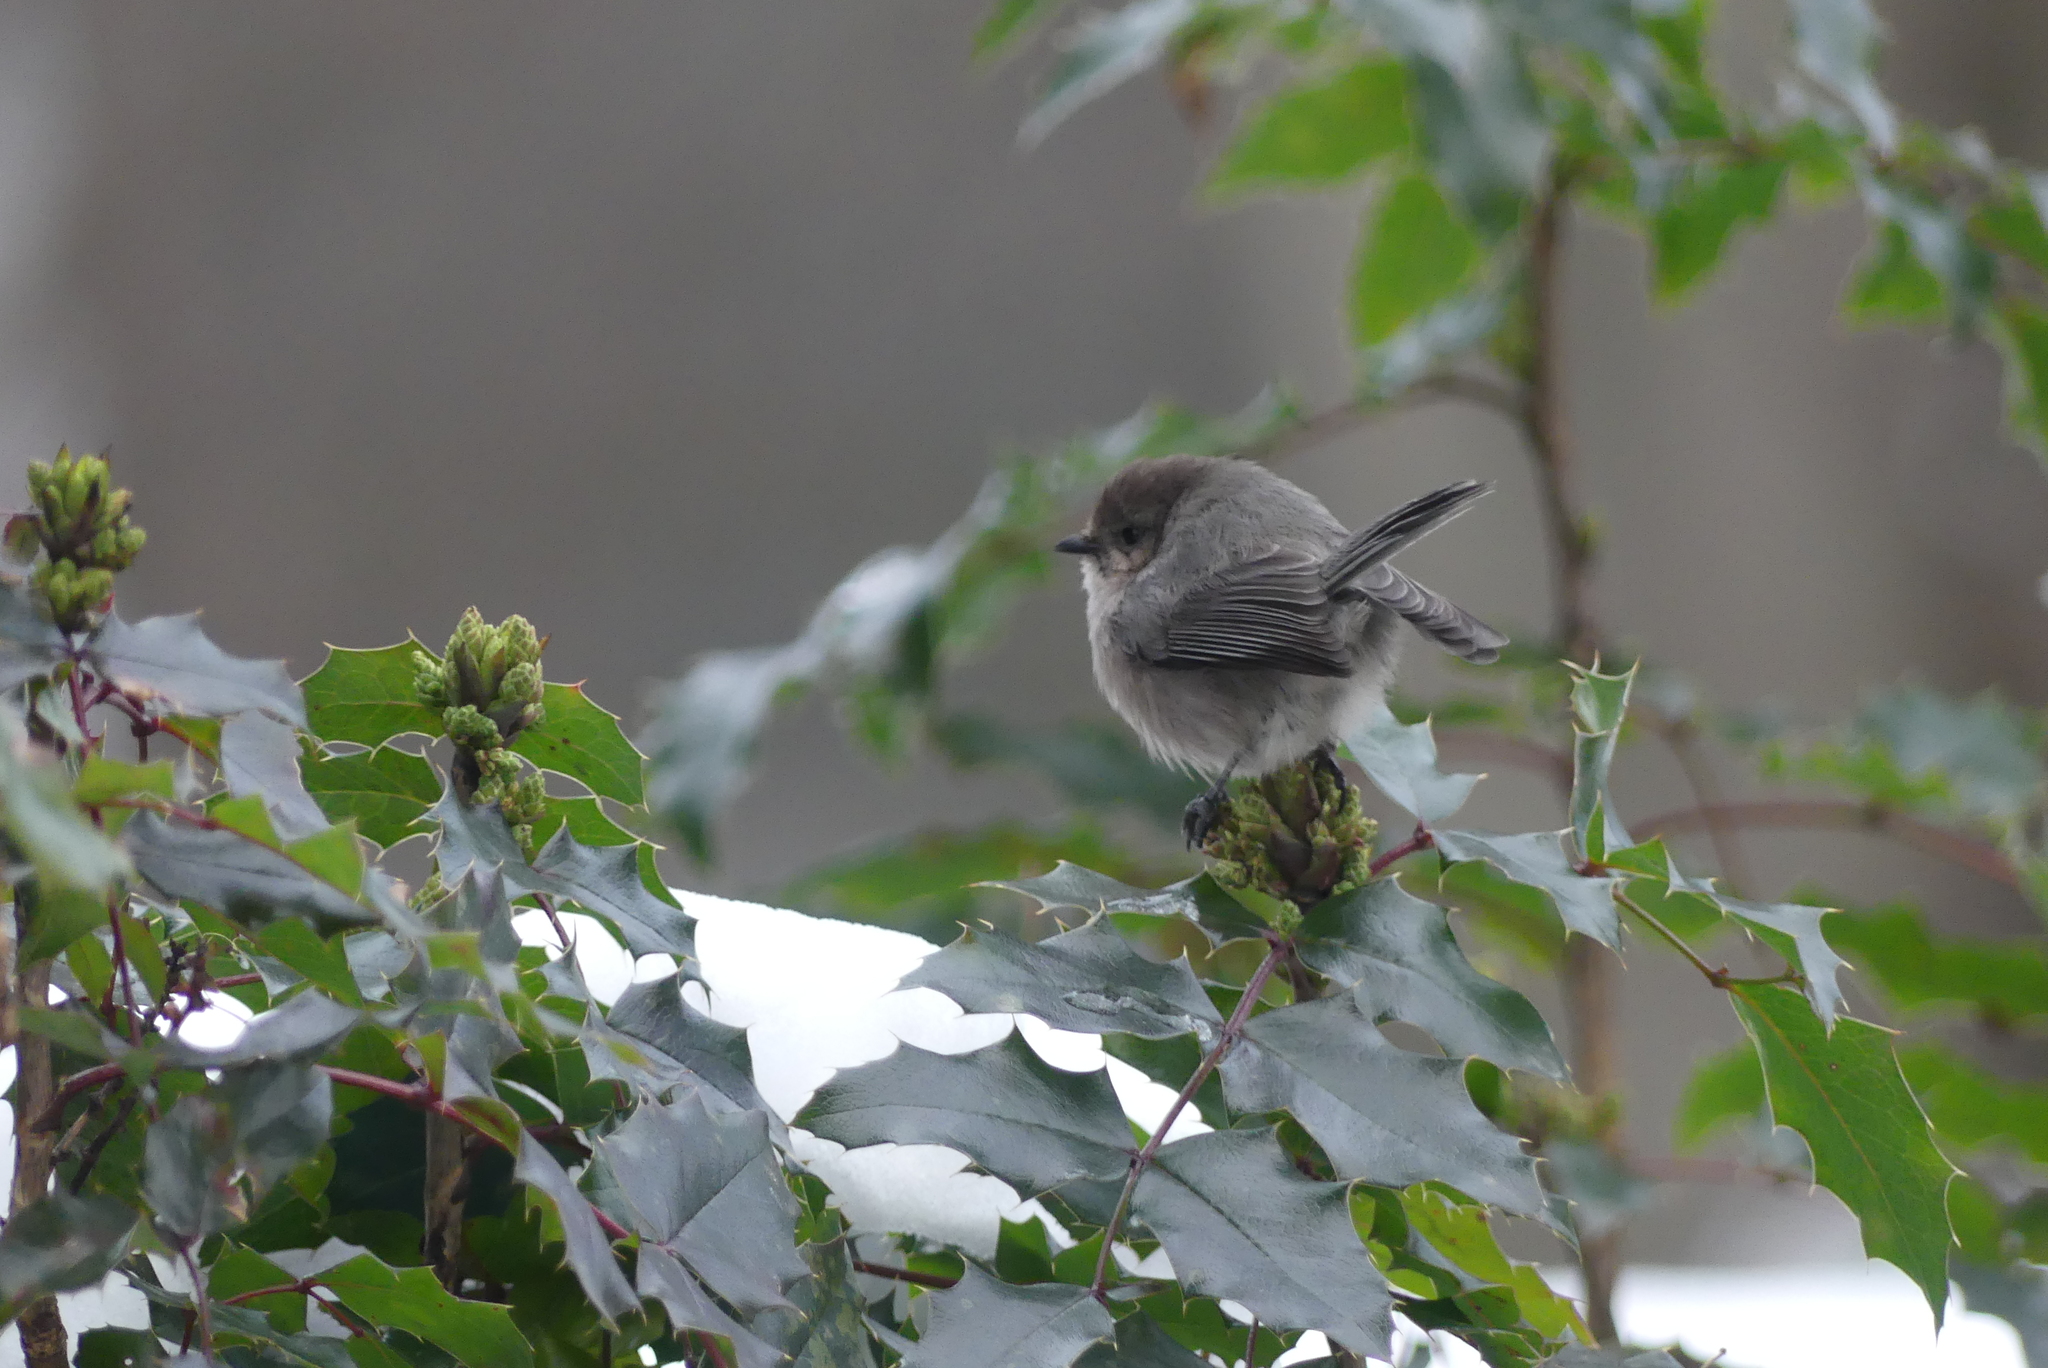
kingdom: Animalia
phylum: Chordata
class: Aves
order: Passeriformes
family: Aegithalidae
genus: Psaltriparus
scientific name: Psaltriparus minimus
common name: American bushtit
